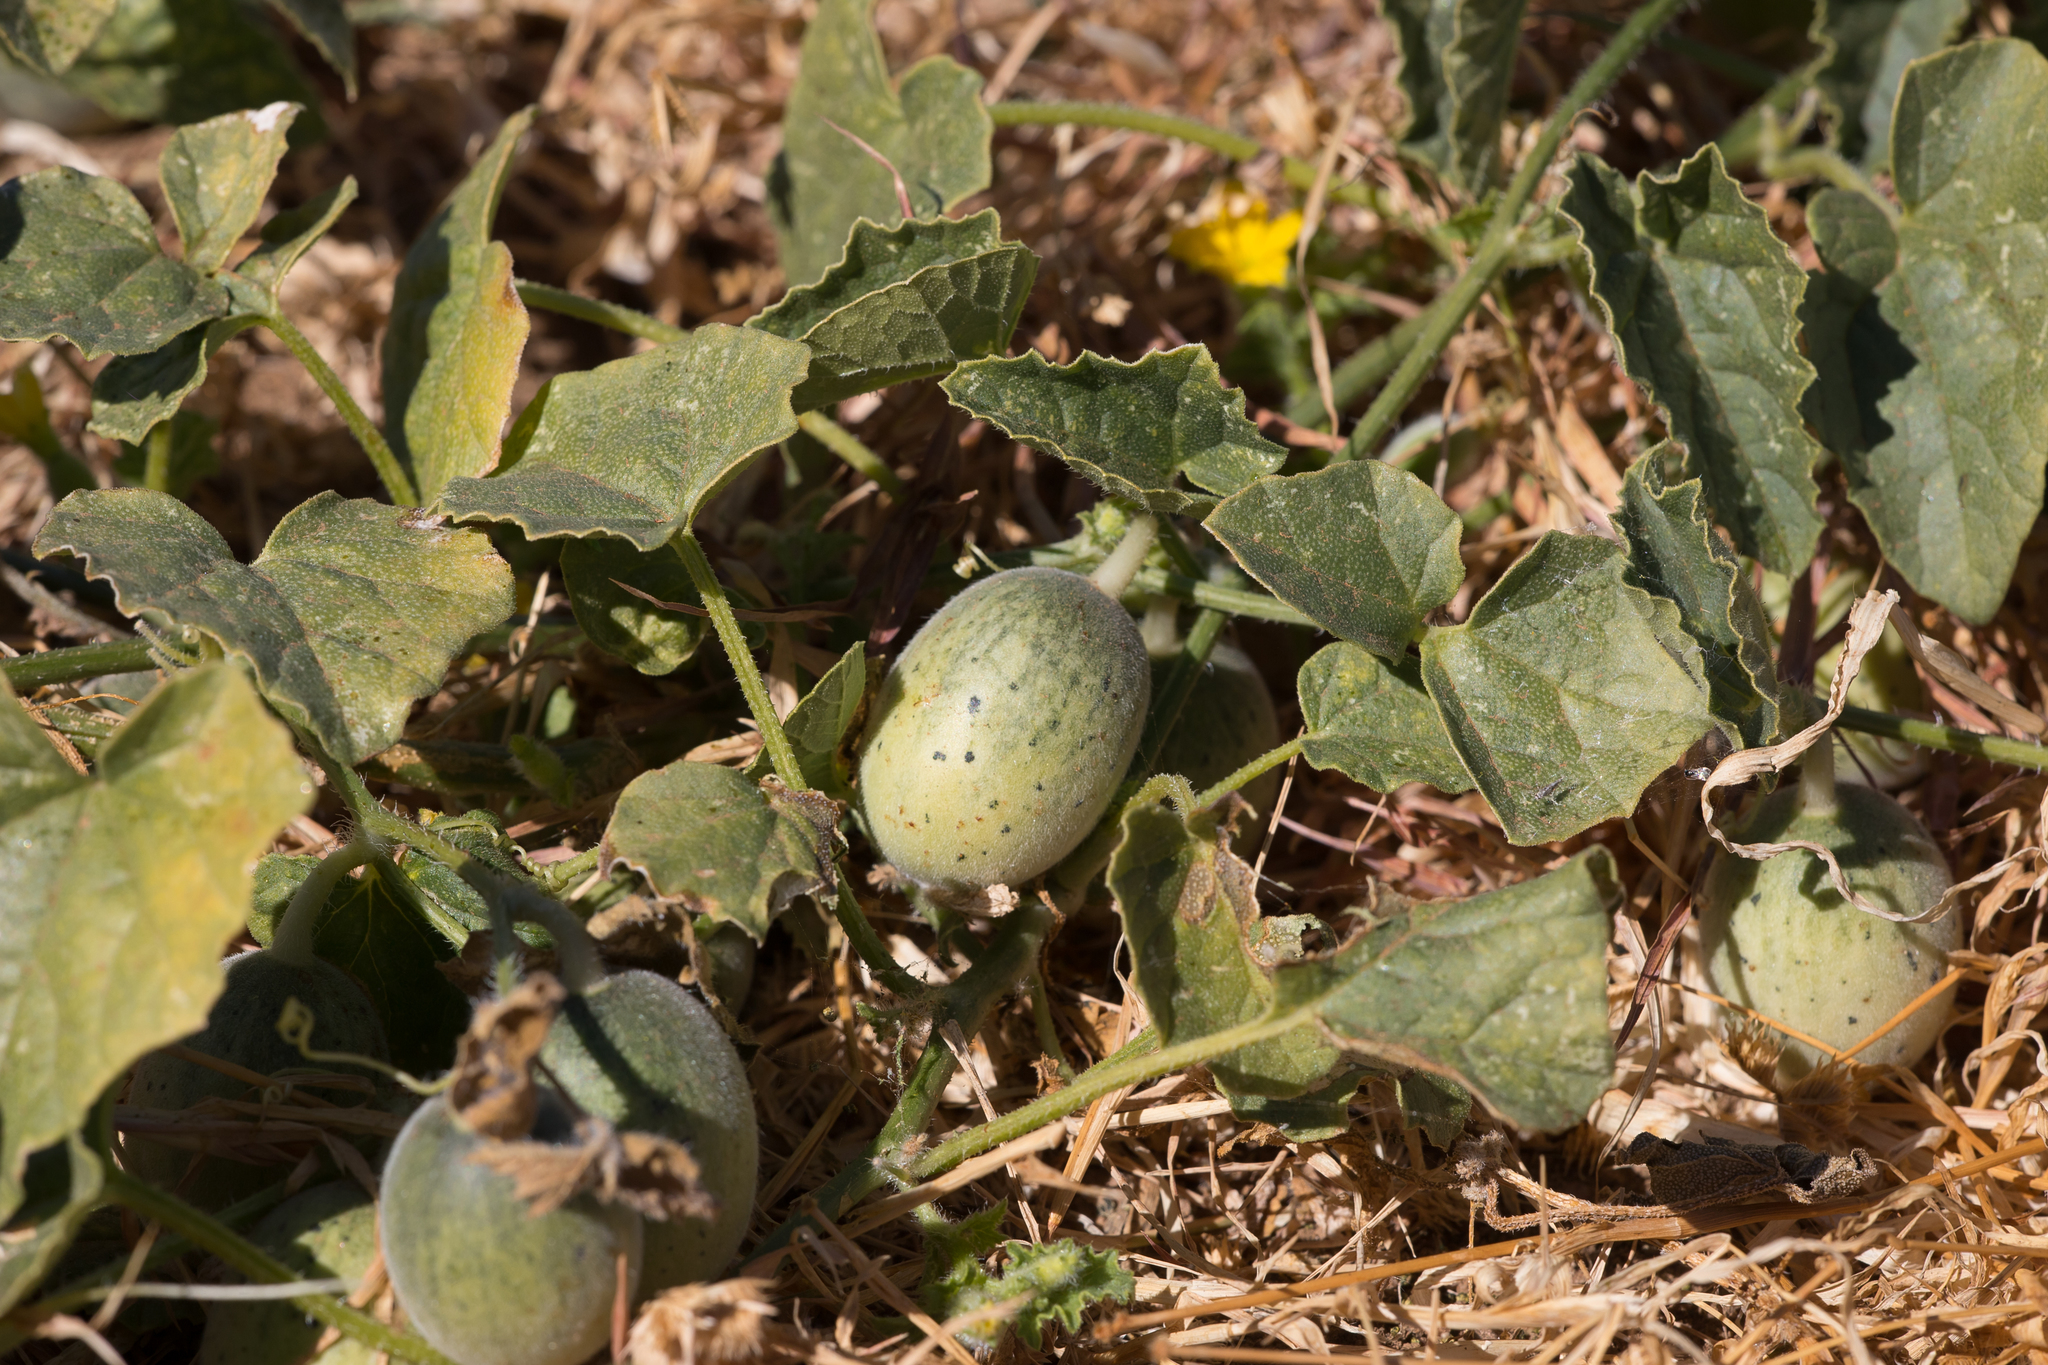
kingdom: Plantae
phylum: Tracheophyta
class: Magnoliopsida
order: Cucurbitales
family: Cucurbitaceae
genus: Cucumis
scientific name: Cucumis melo
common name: Melon
